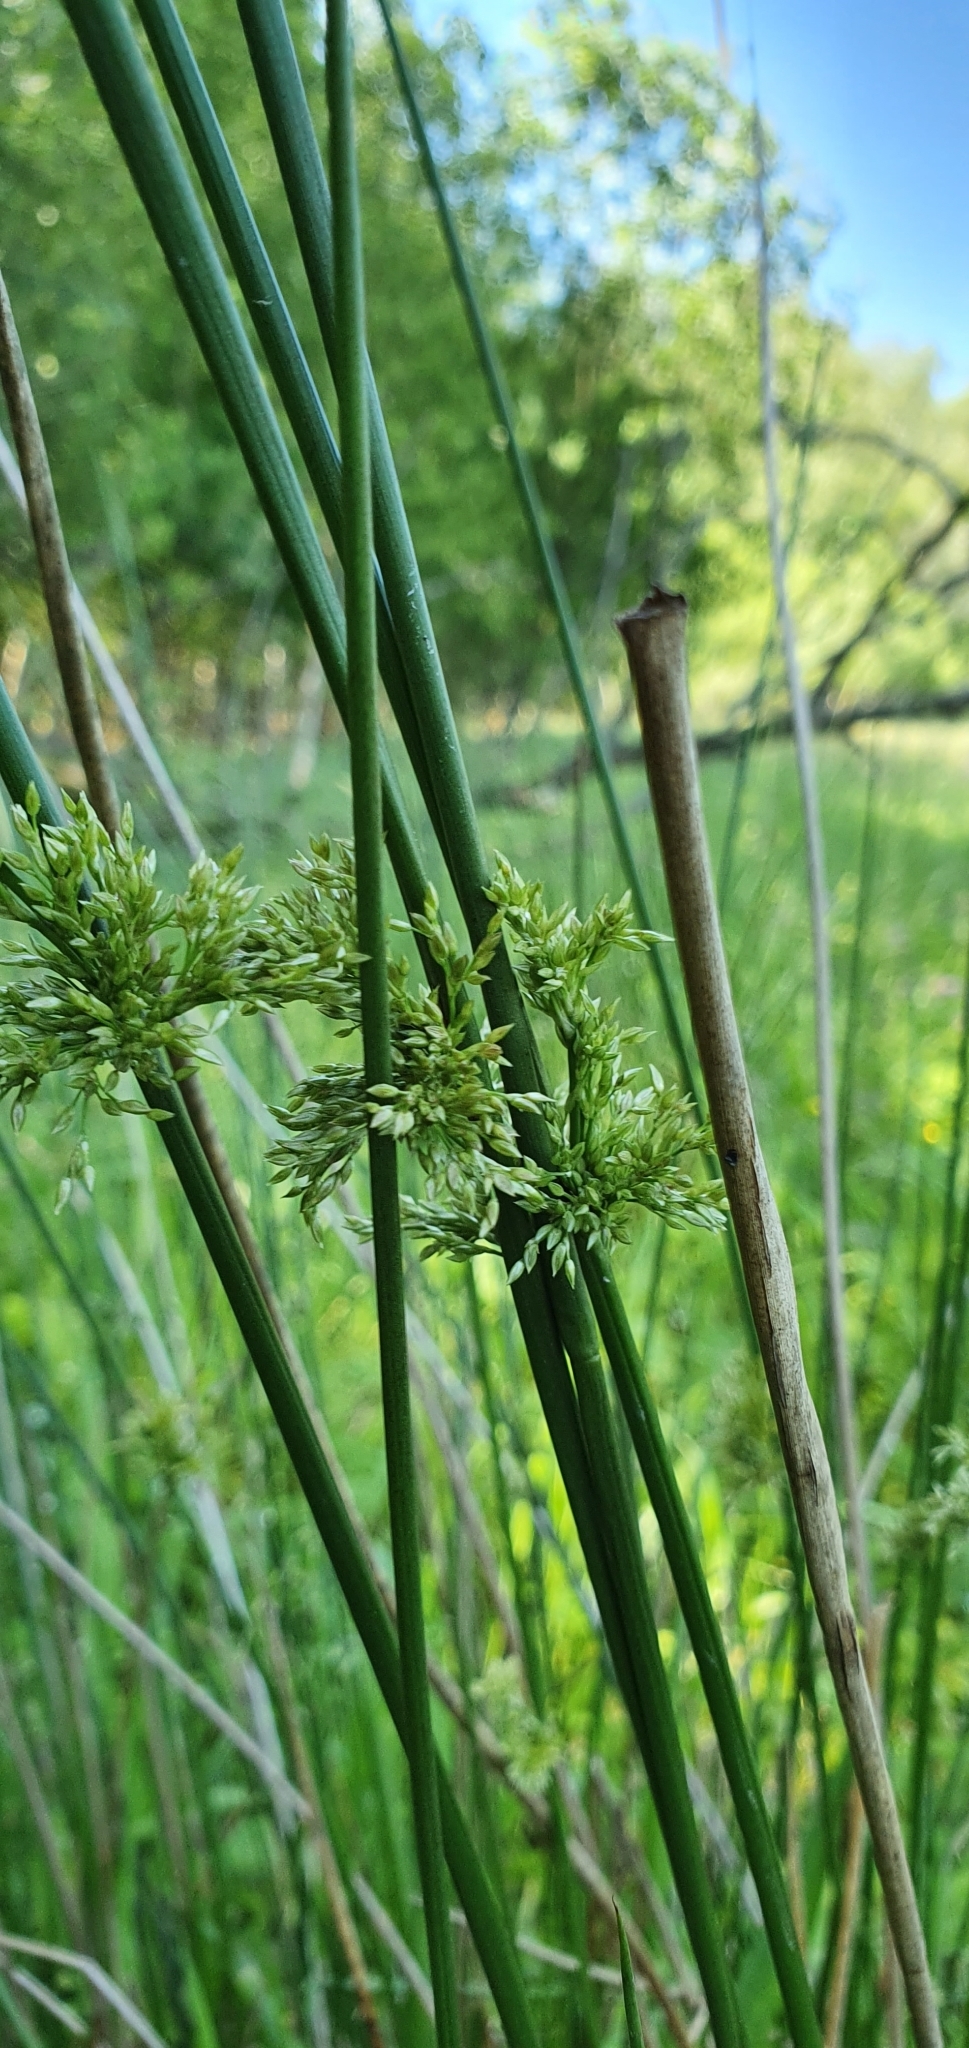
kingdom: Plantae
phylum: Tracheophyta
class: Liliopsida
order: Poales
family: Juncaceae
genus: Juncus
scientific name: Juncus effusus
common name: Soft rush
